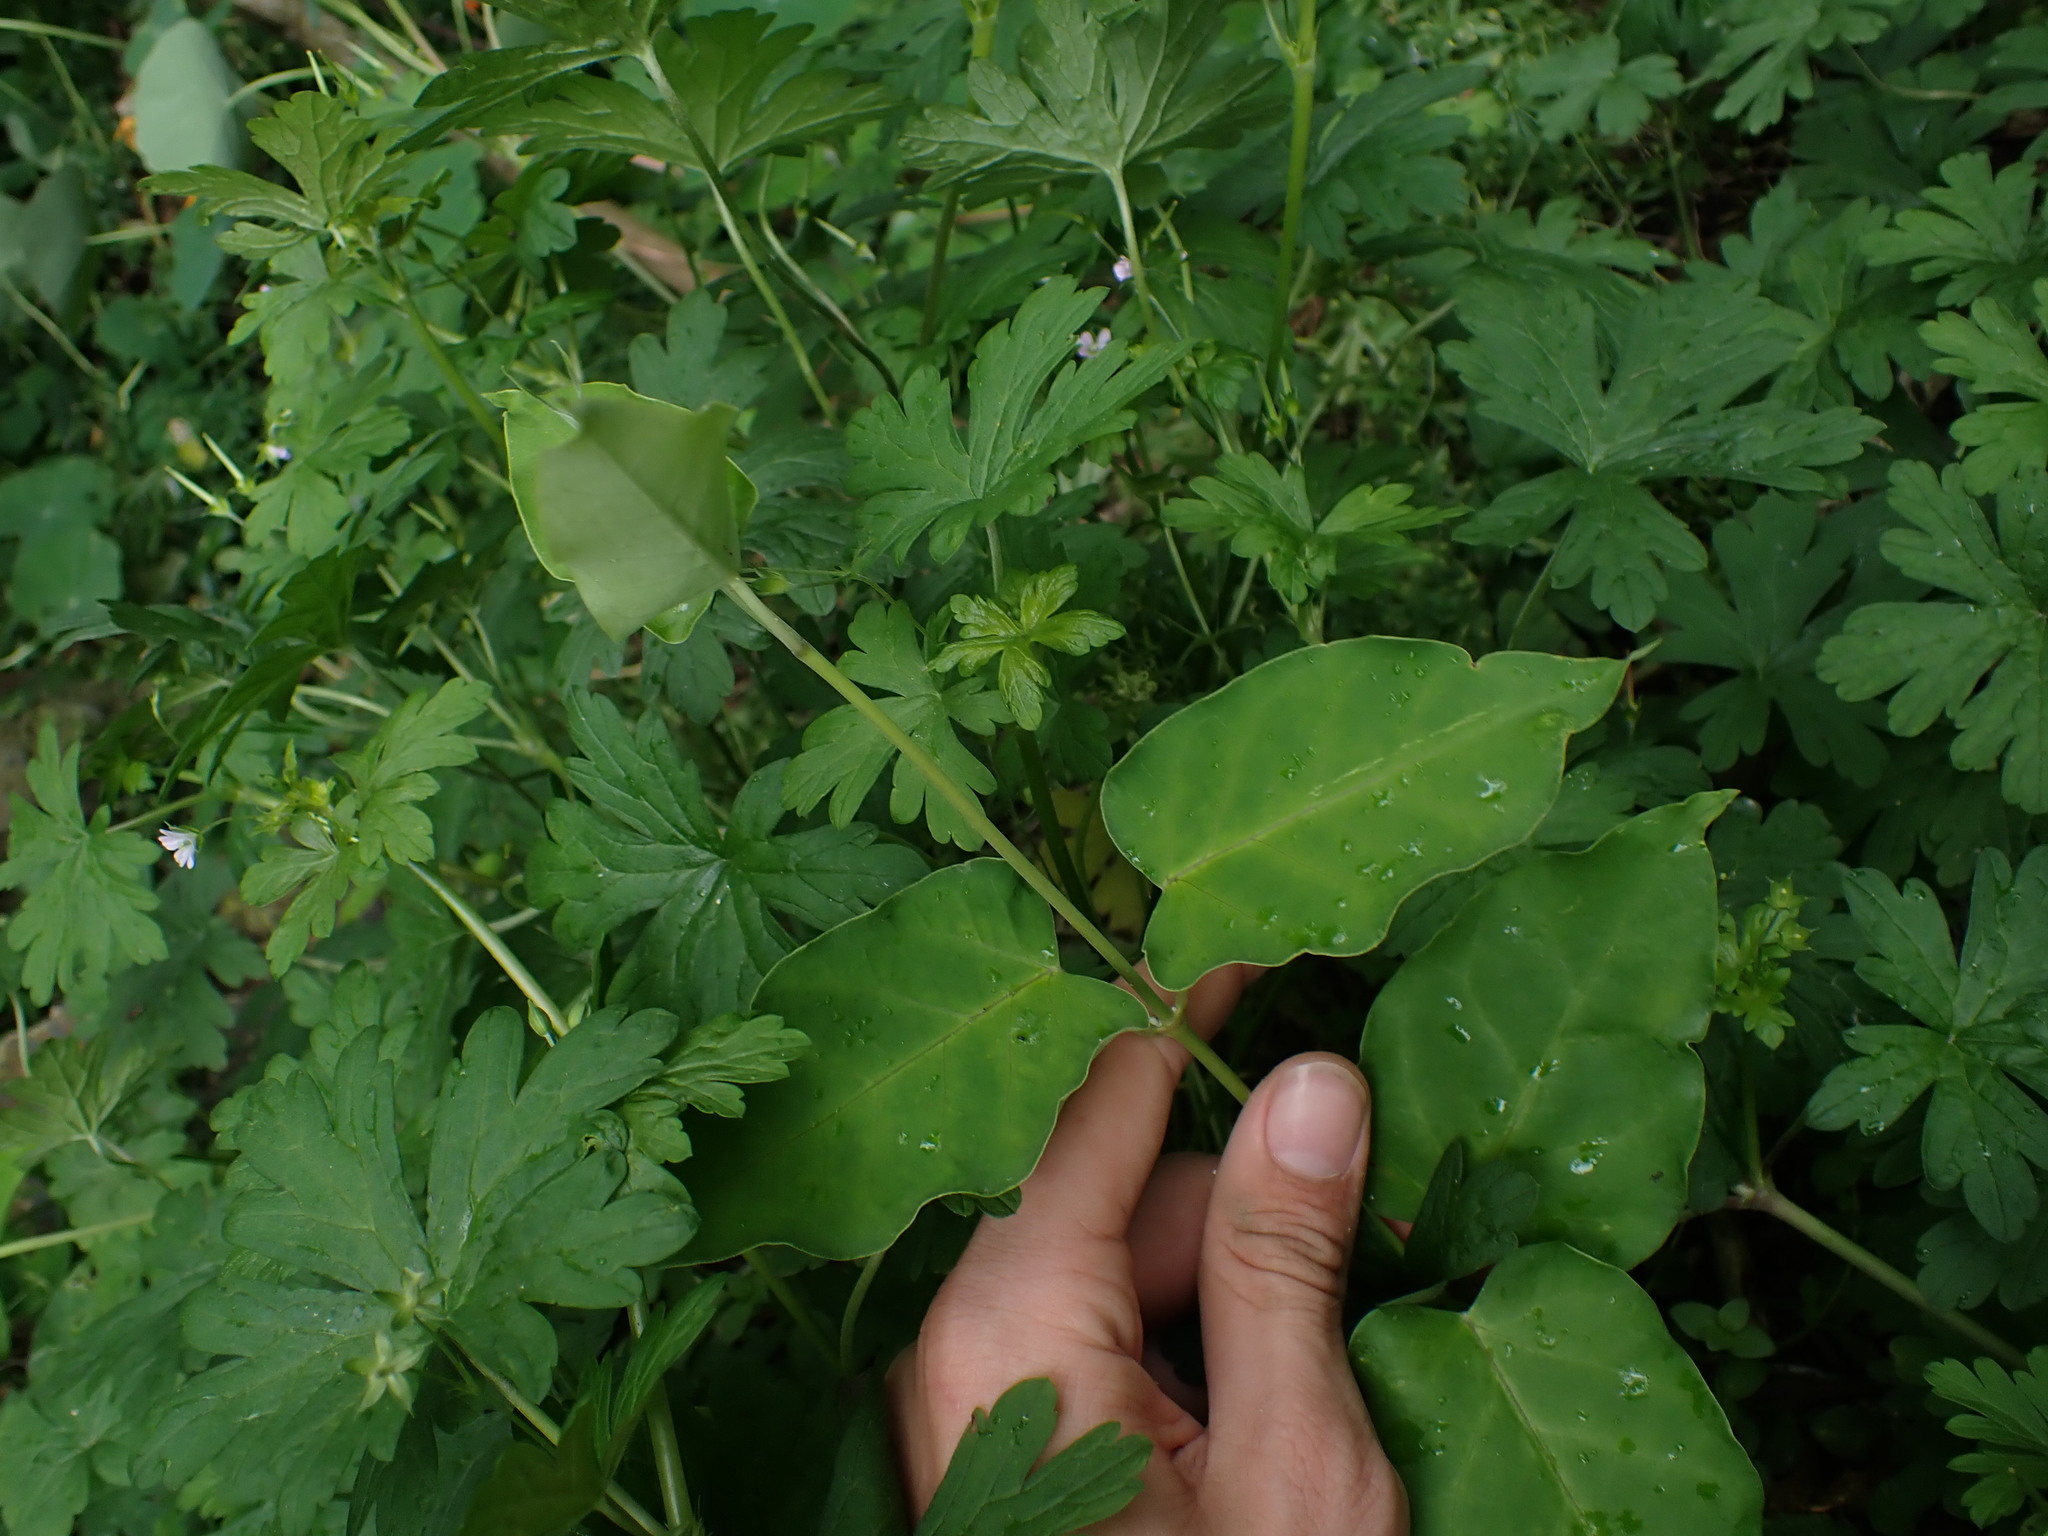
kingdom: Plantae
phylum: Tracheophyta
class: Magnoliopsida
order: Gentianales
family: Apocynaceae
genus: Araujia
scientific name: Araujia sericifera
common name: White bladderflower
